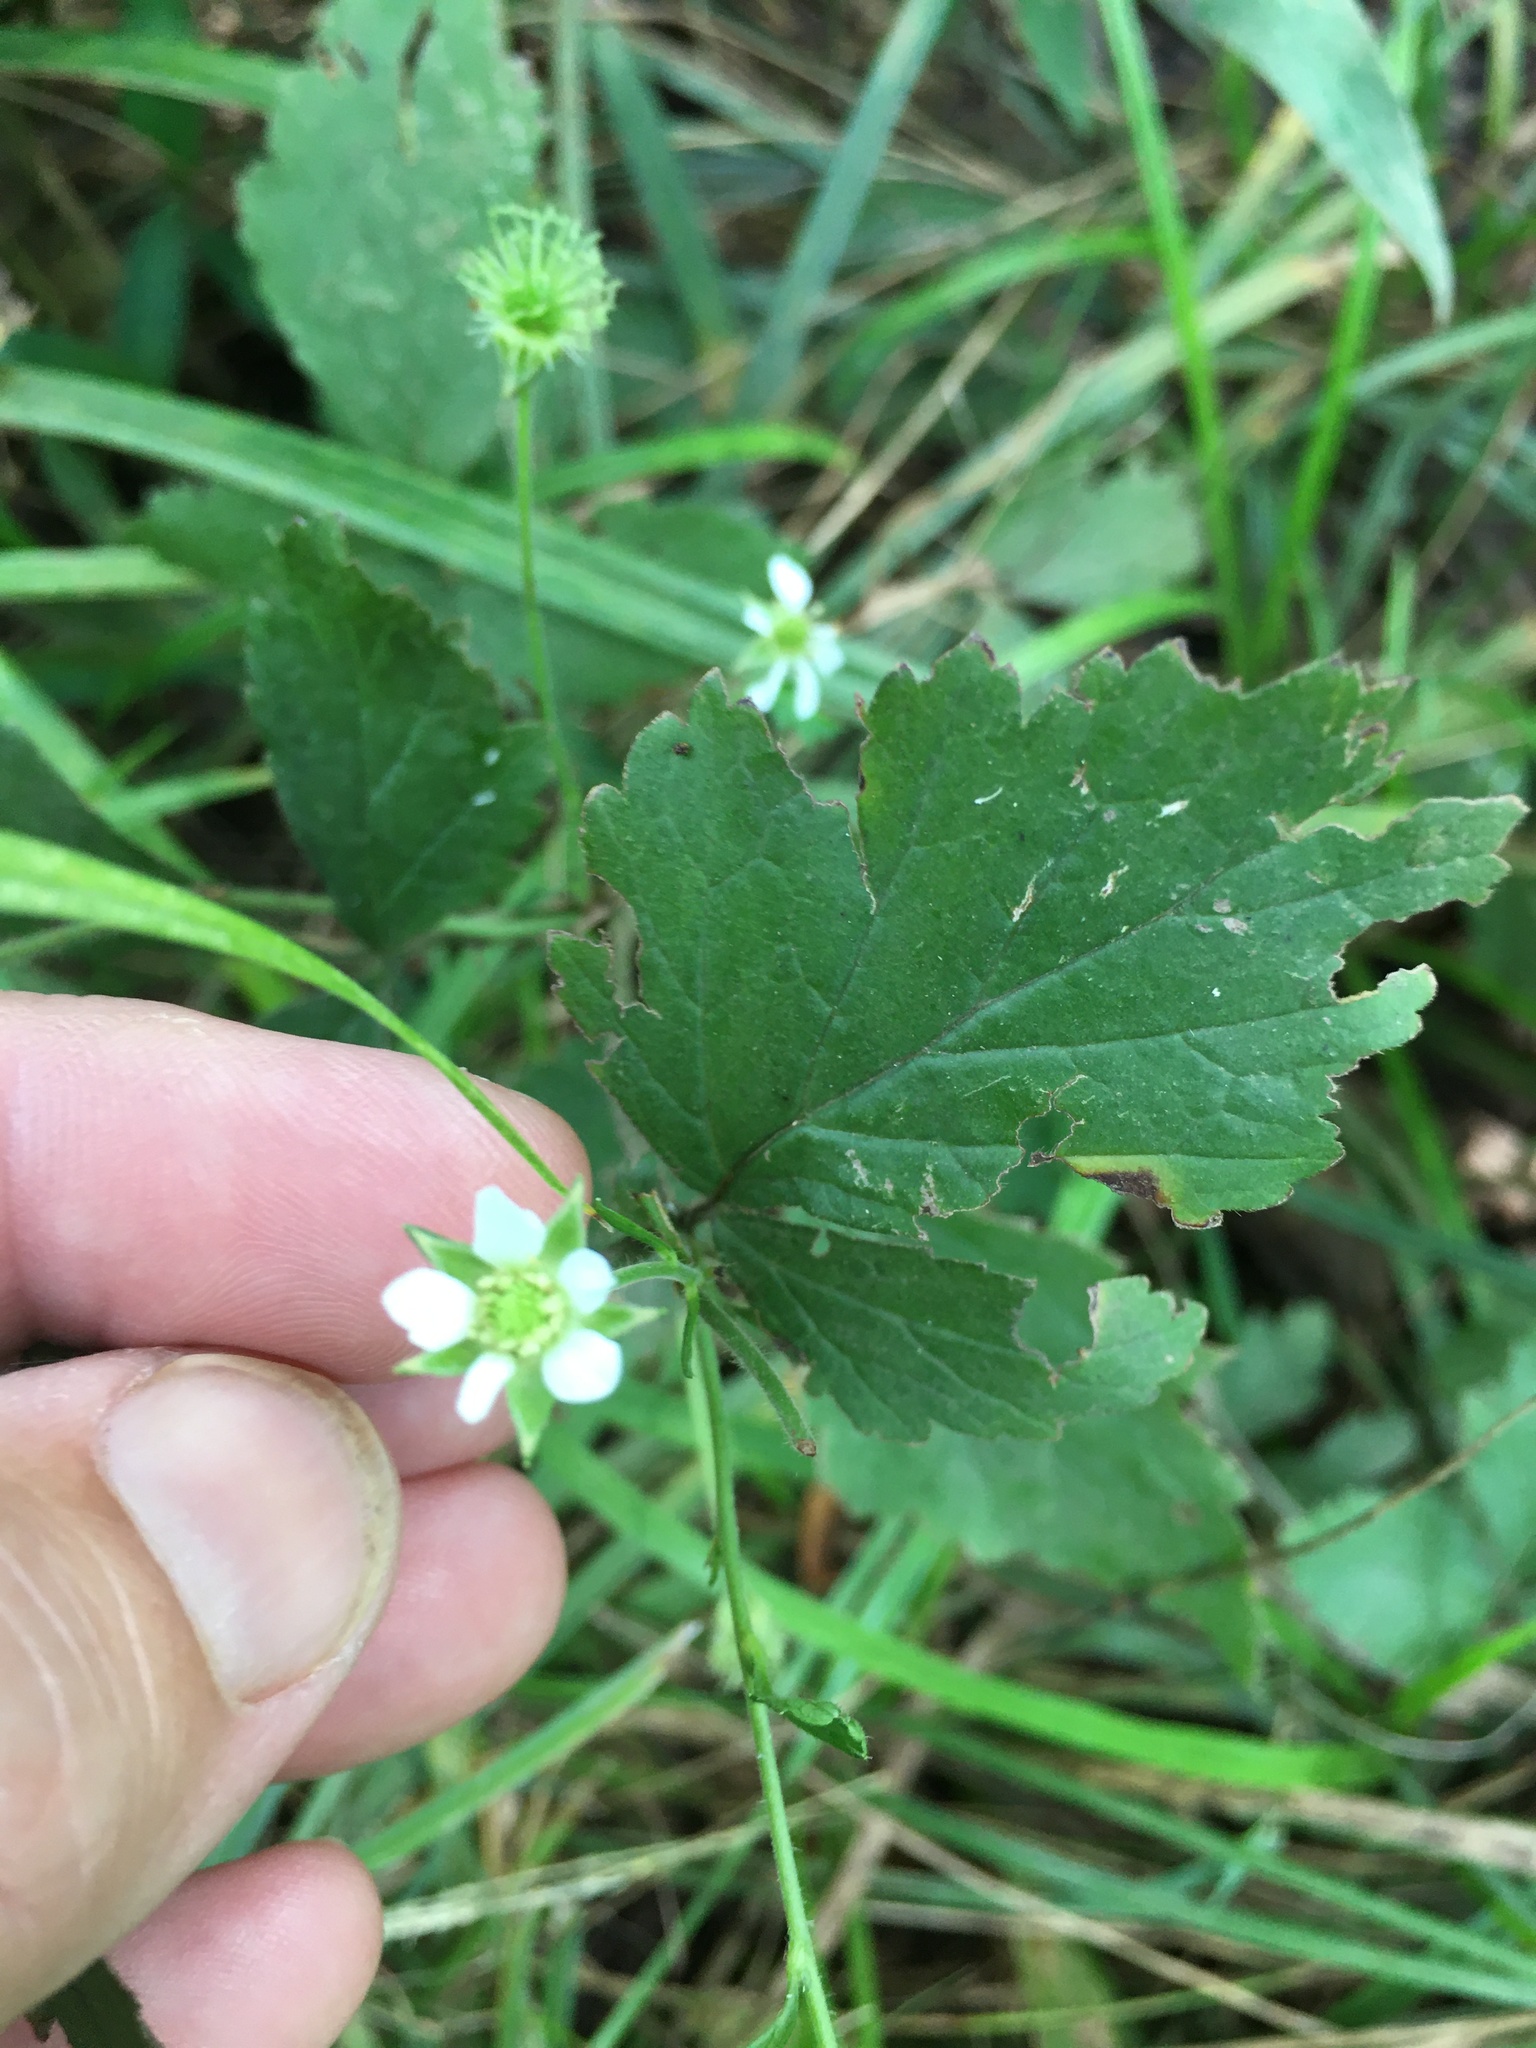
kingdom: Plantae
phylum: Tracheophyta
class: Magnoliopsida
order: Rosales
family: Rosaceae
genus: Geum
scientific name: Geum canadense
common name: White avens
